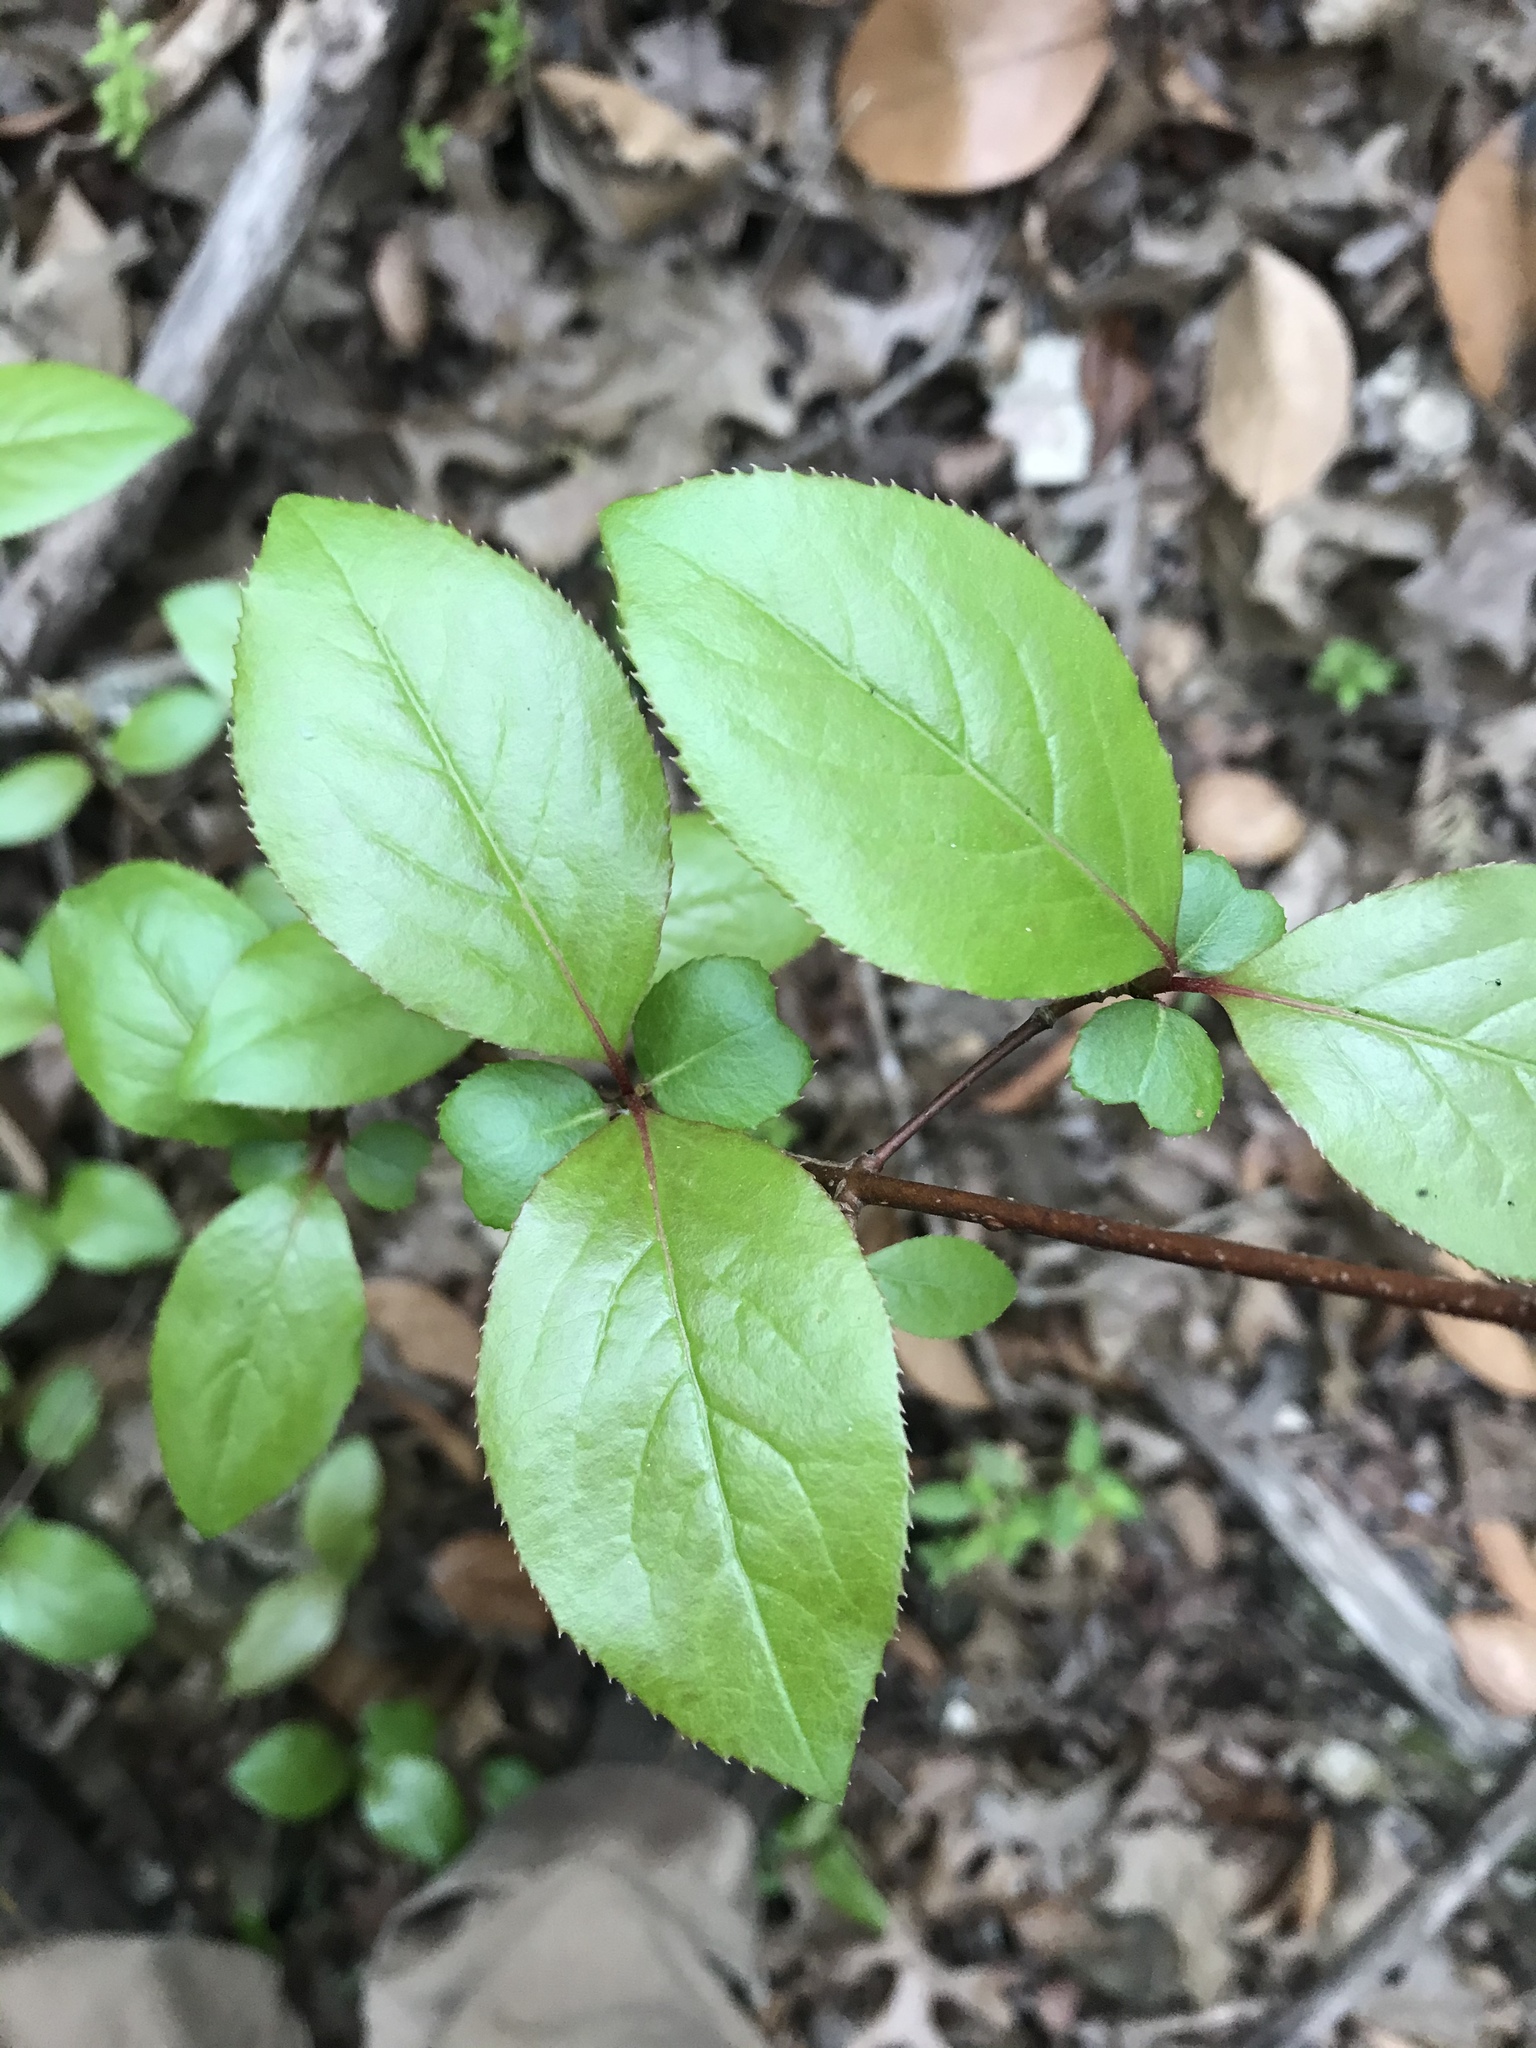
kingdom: Plantae
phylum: Tracheophyta
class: Magnoliopsida
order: Dipsacales
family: Viburnaceae
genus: Viburnum
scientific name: Viburnum rufidulum
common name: Blue haw
